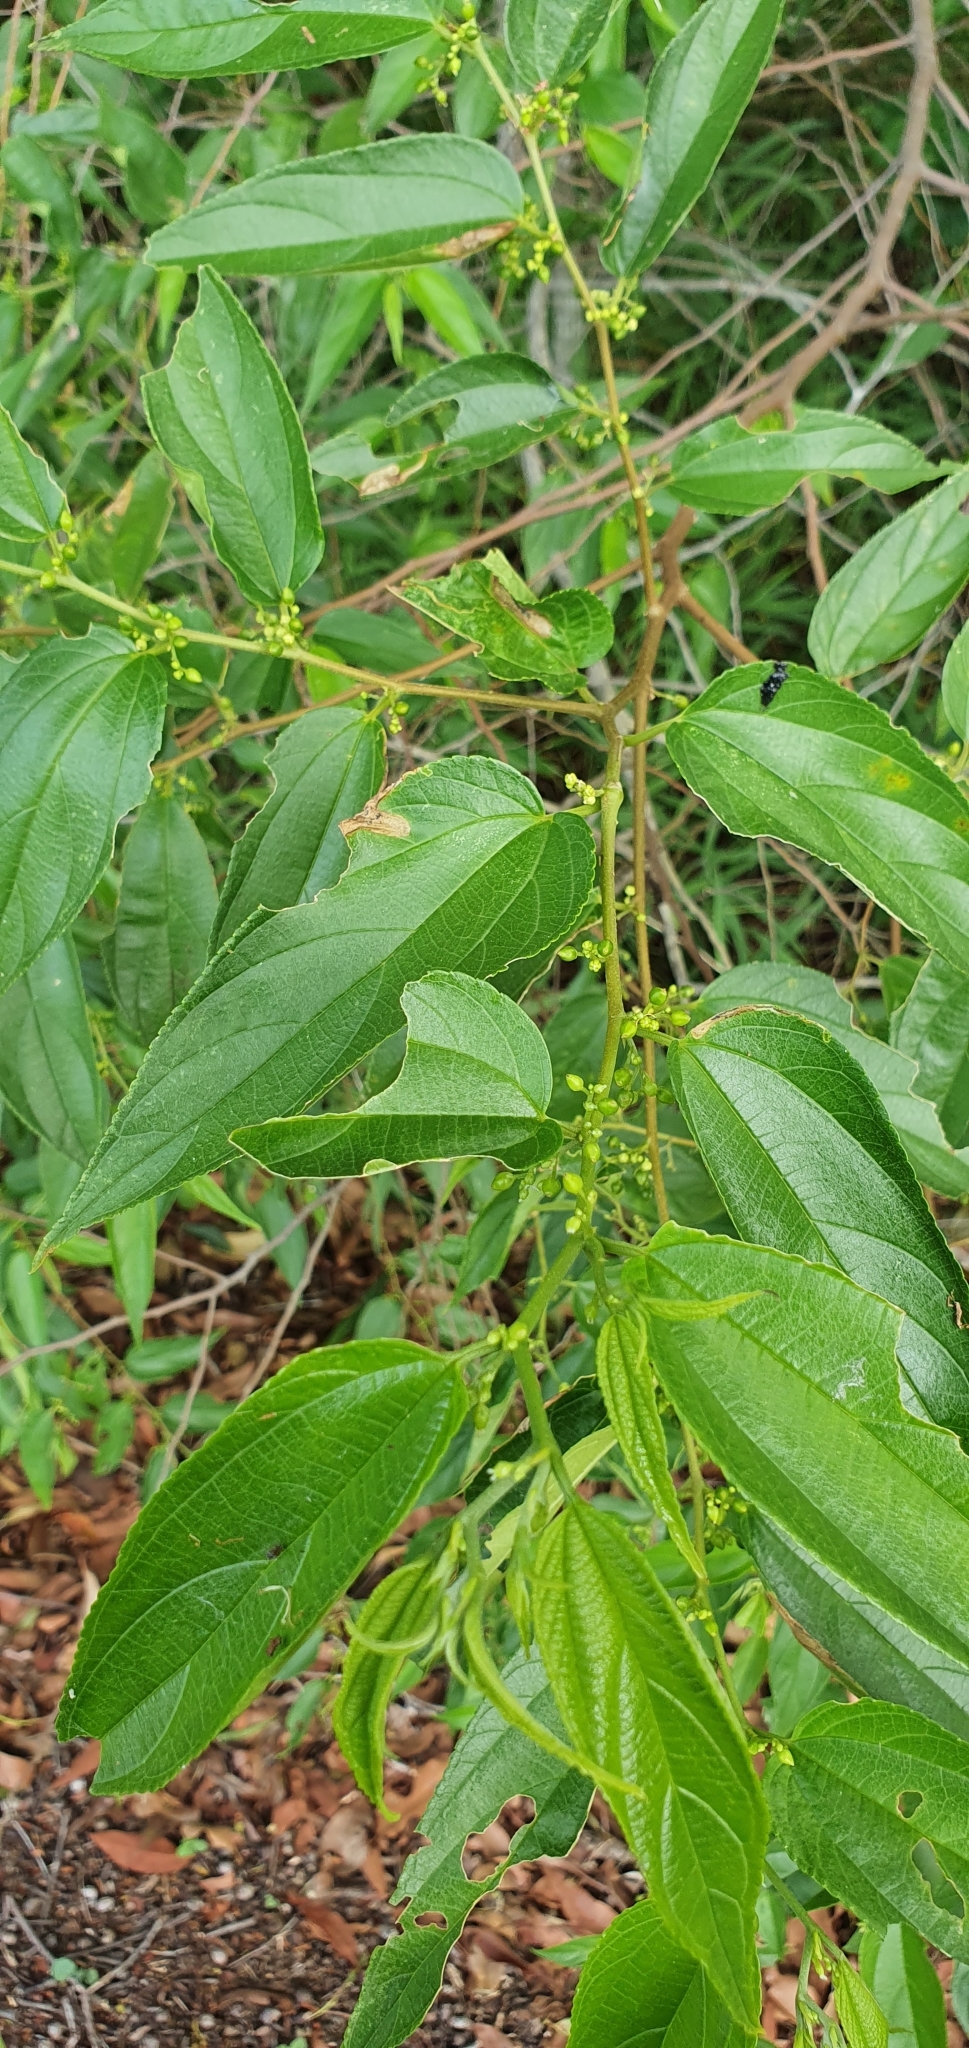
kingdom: Plantae
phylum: Tracheophyta
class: Magnoliopsida
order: Rosales
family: Cannabaceae
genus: Trema
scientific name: Trema tomentosum
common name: Peach-leaf-poisonbush
